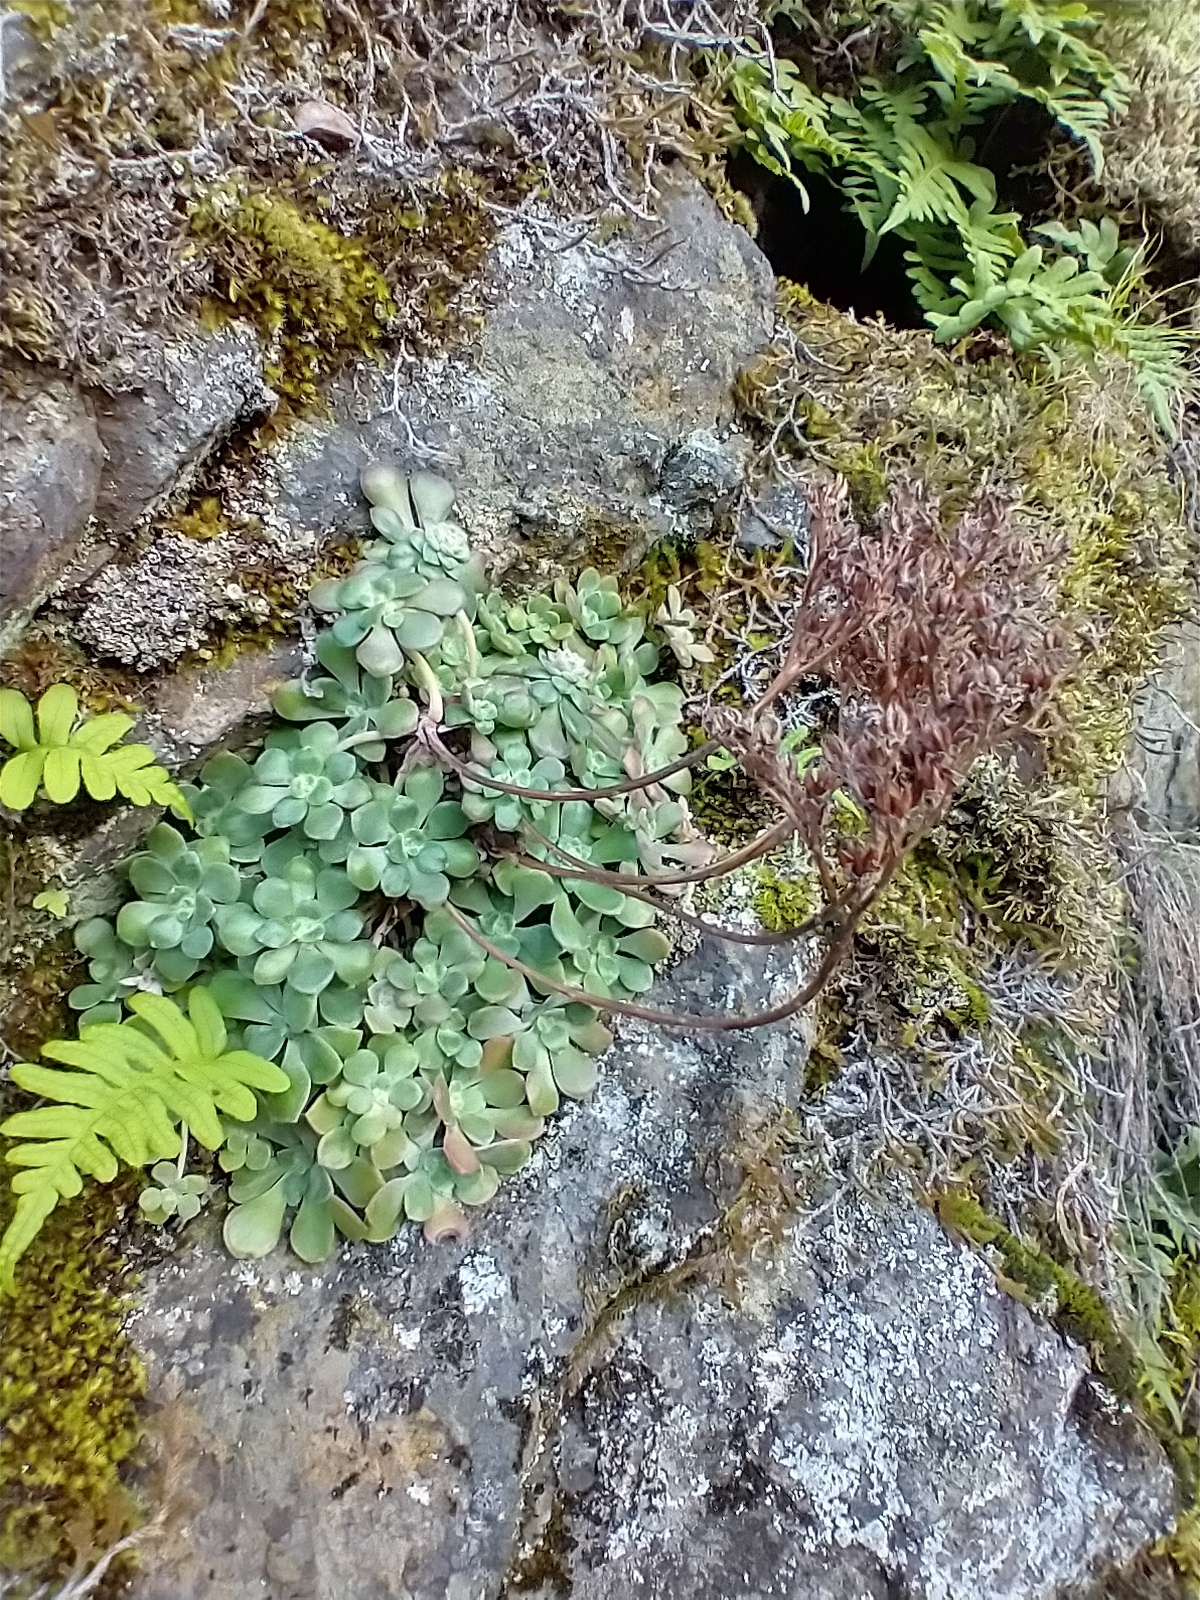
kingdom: Plantae
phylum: Tracheophyta
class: Magnoliopsida
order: Saxifragales
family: Crassulaceae
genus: Sedum
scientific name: Sedum spathulifolium
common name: Colorado stonecrop
